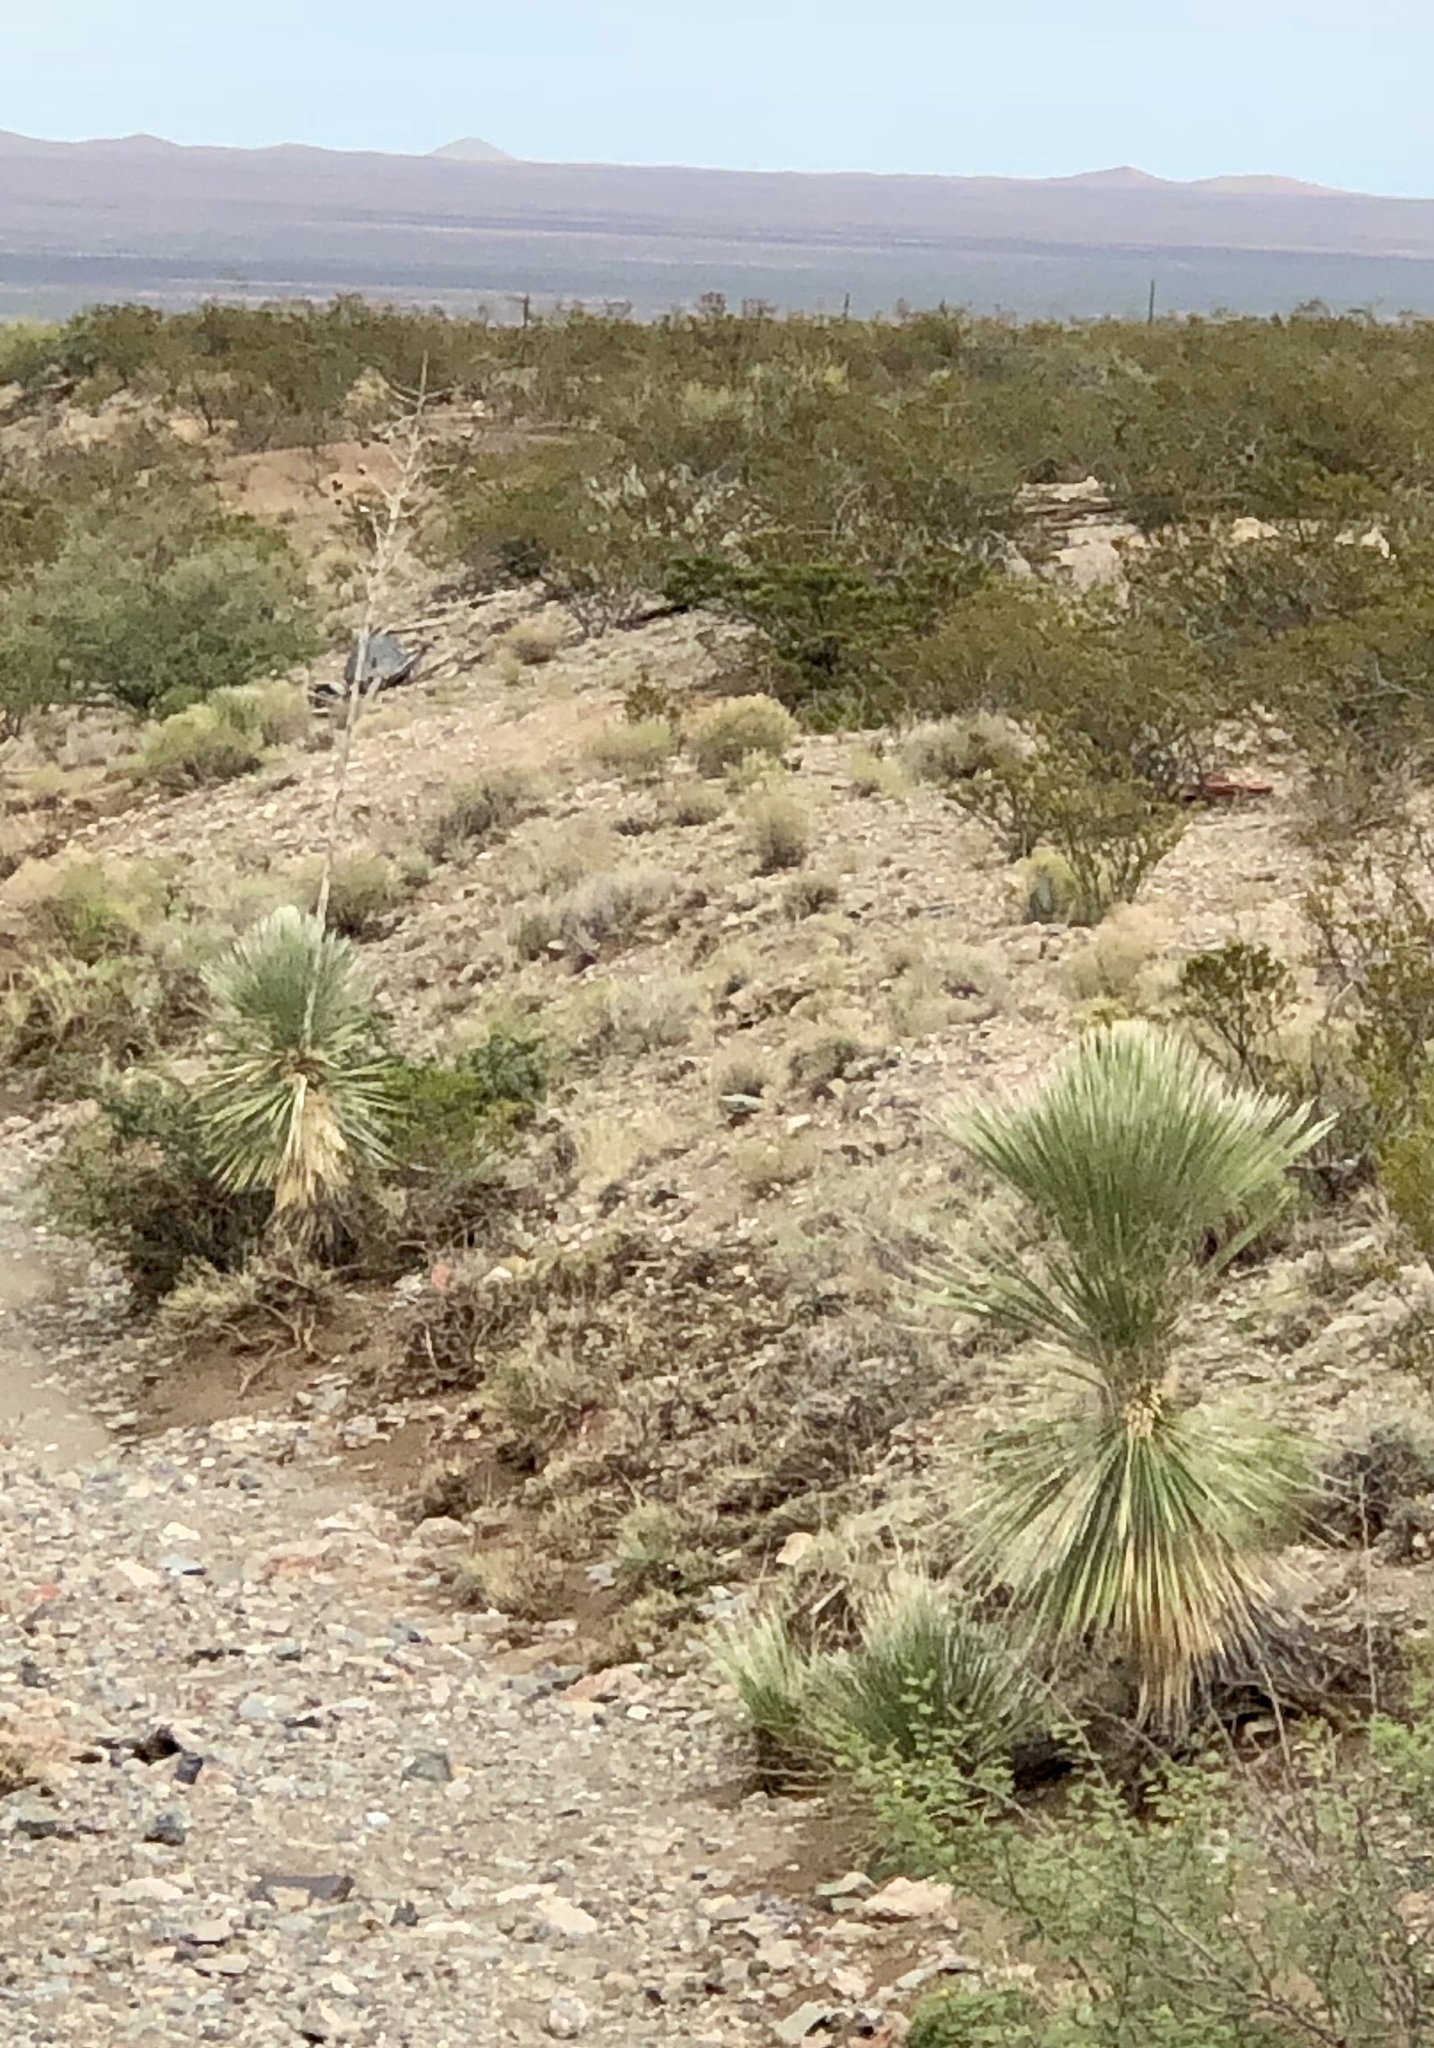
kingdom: Plantae
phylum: Tracheophyta
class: Liliopsida
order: Asparagales
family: Asparagaceae
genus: Yucca
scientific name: Yucca elata
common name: Palmella
